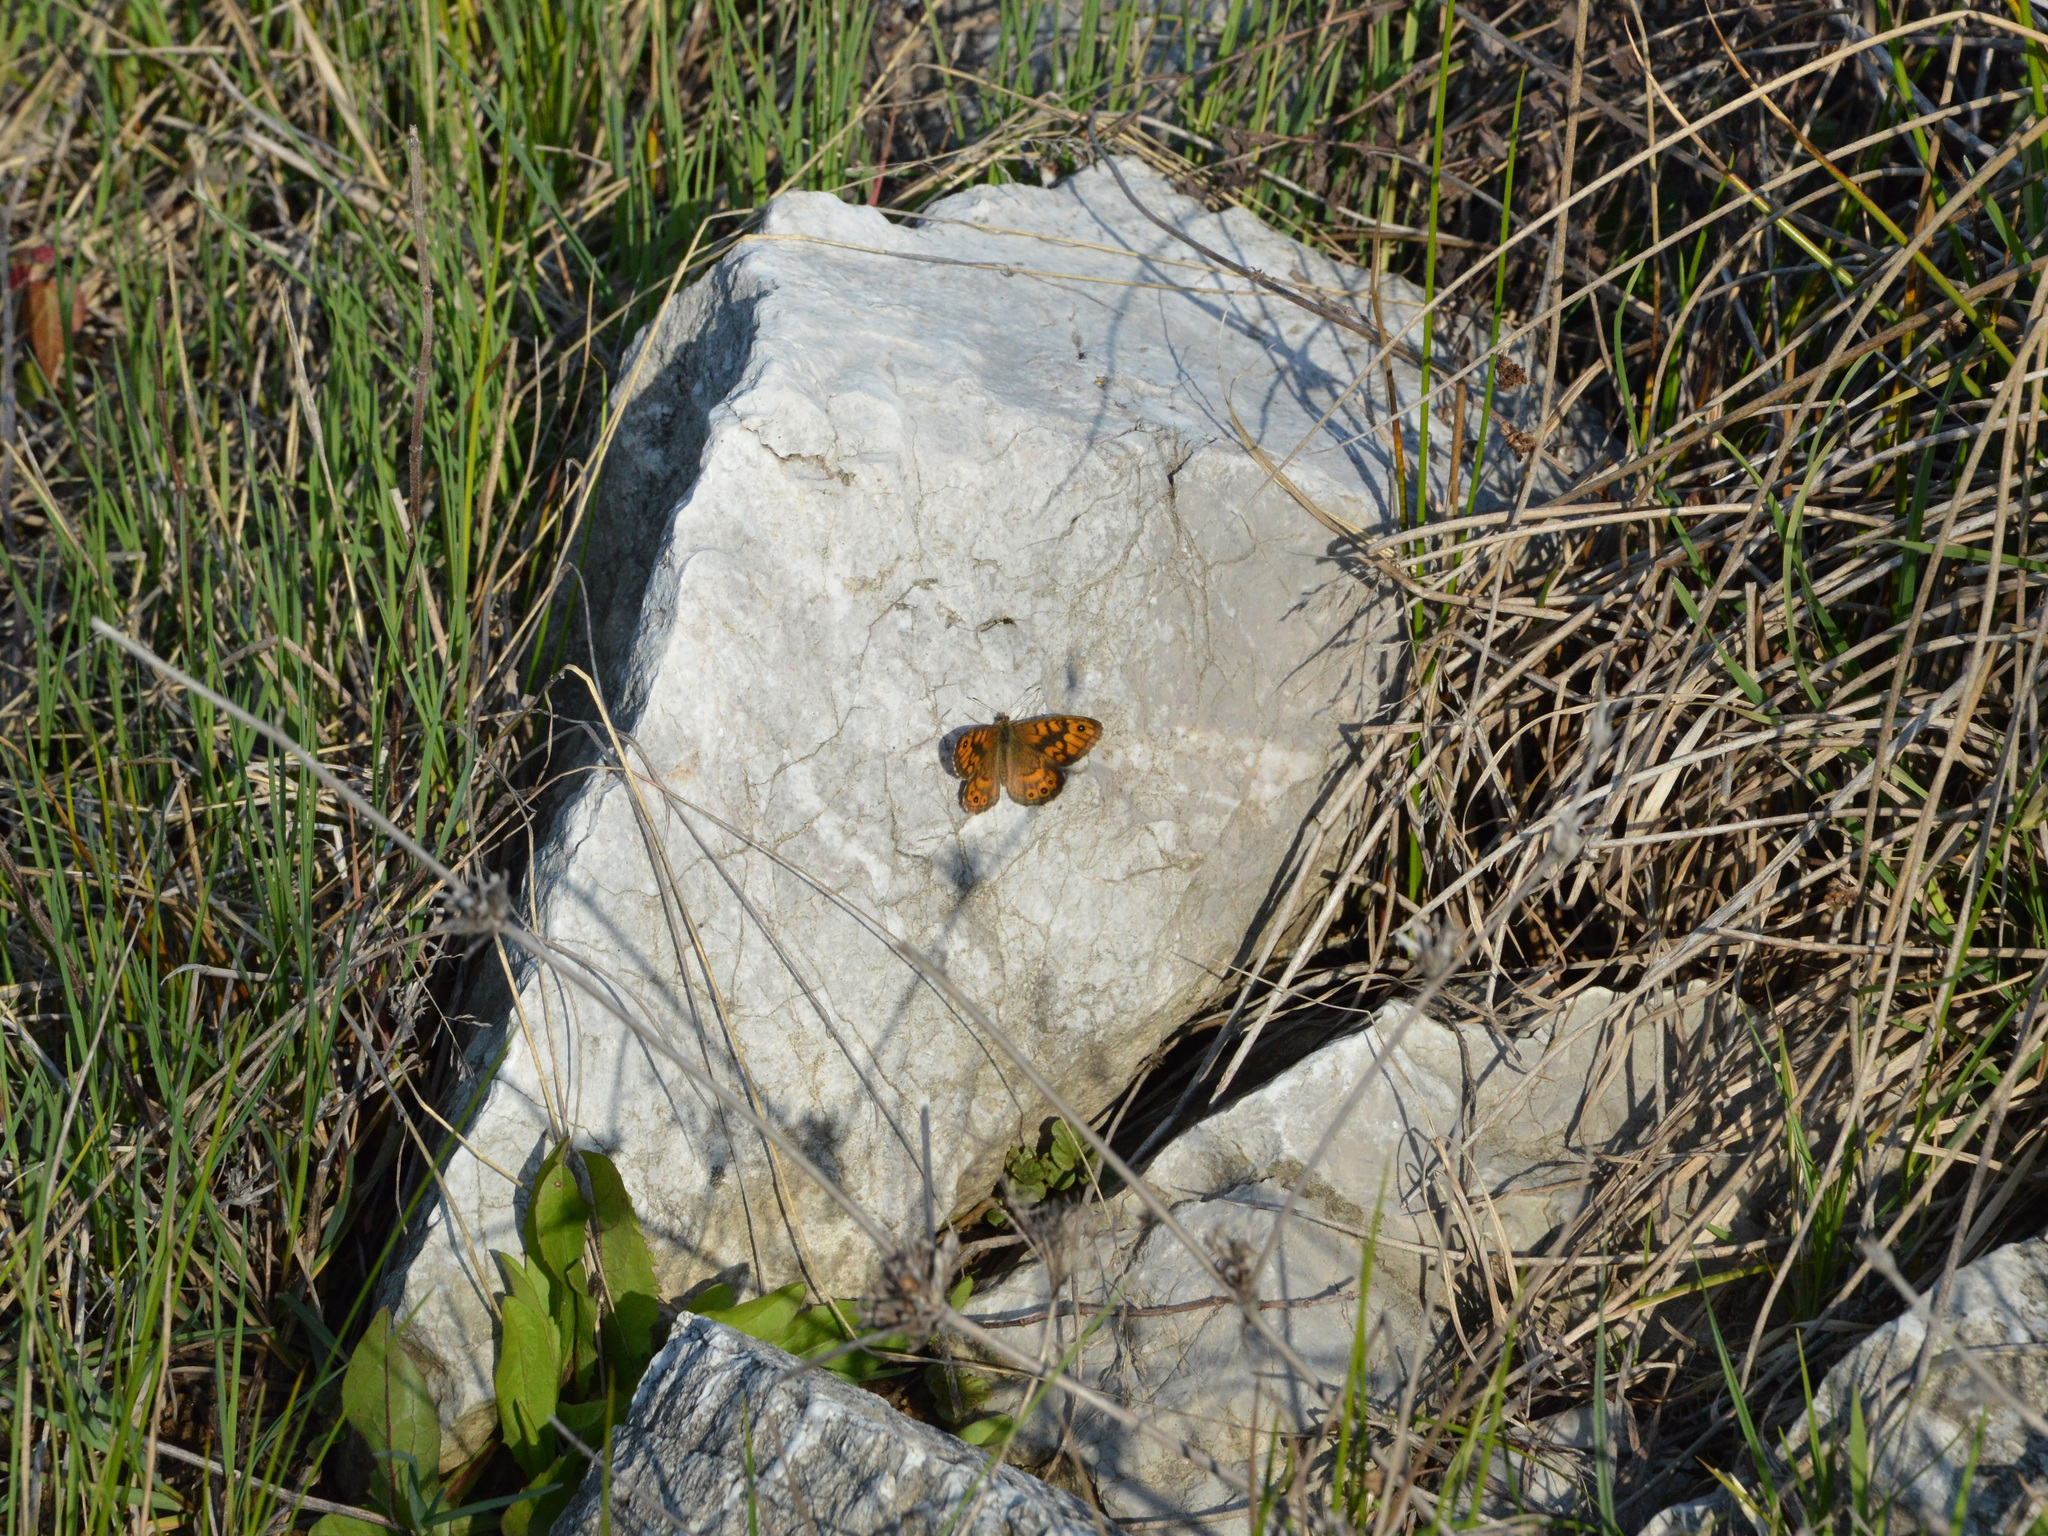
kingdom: Animalia
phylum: Arthropoda
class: Insecta
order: Lepidoptera
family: Nymphalidae
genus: Pararge
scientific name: Pararge Lasiommata megera
